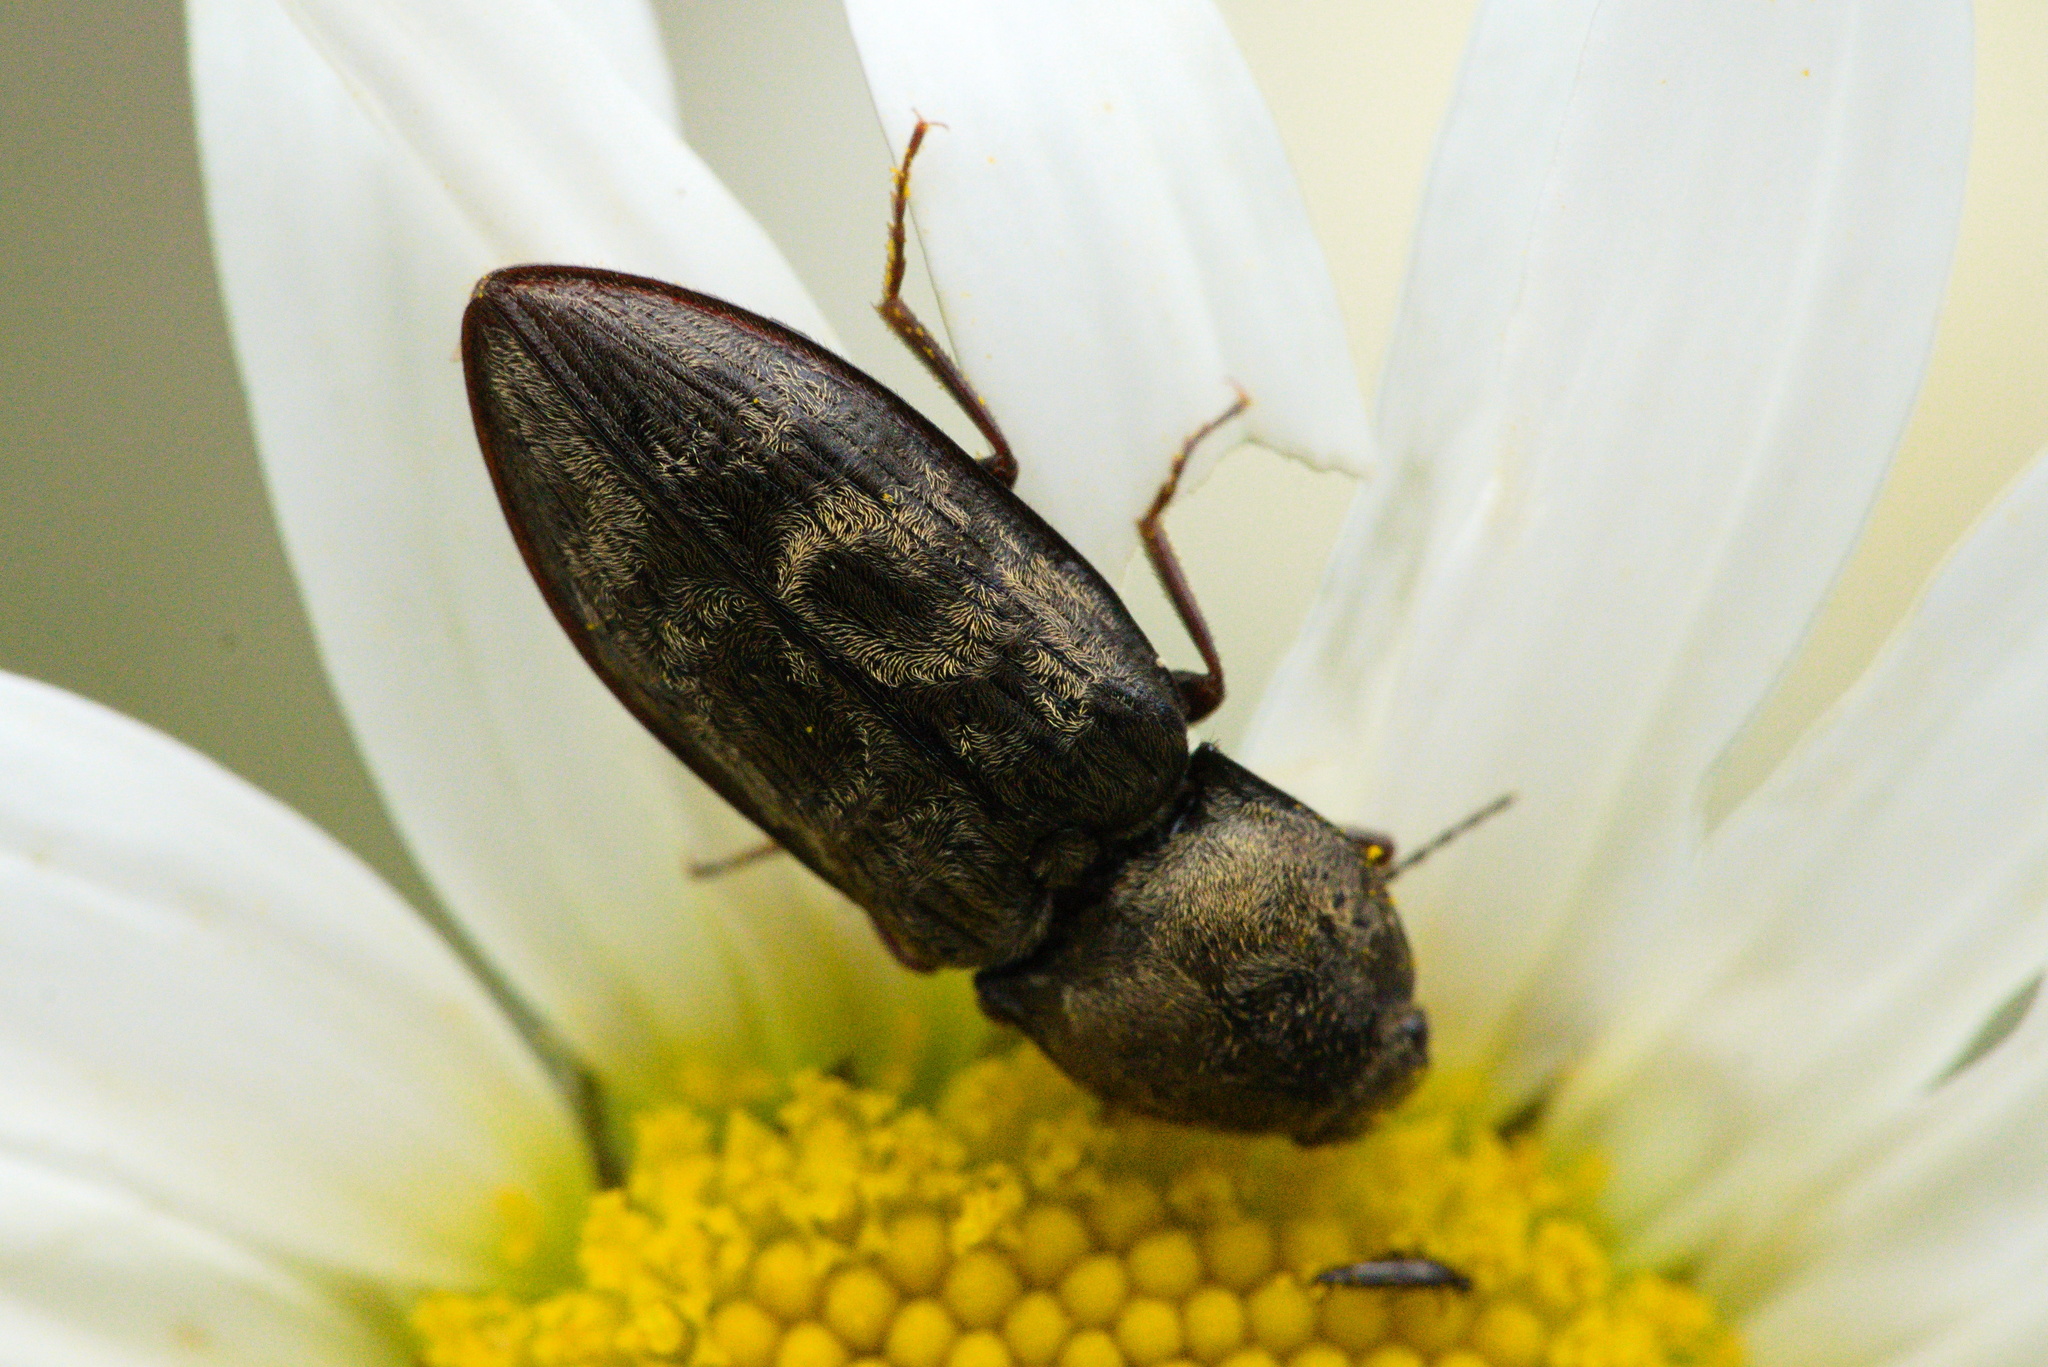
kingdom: Animalia
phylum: Arthropoda
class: Insecta
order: Coleoptera
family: Elateridae
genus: Prosternon
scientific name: Prosternon tessellatum
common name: Chequered click beetle
